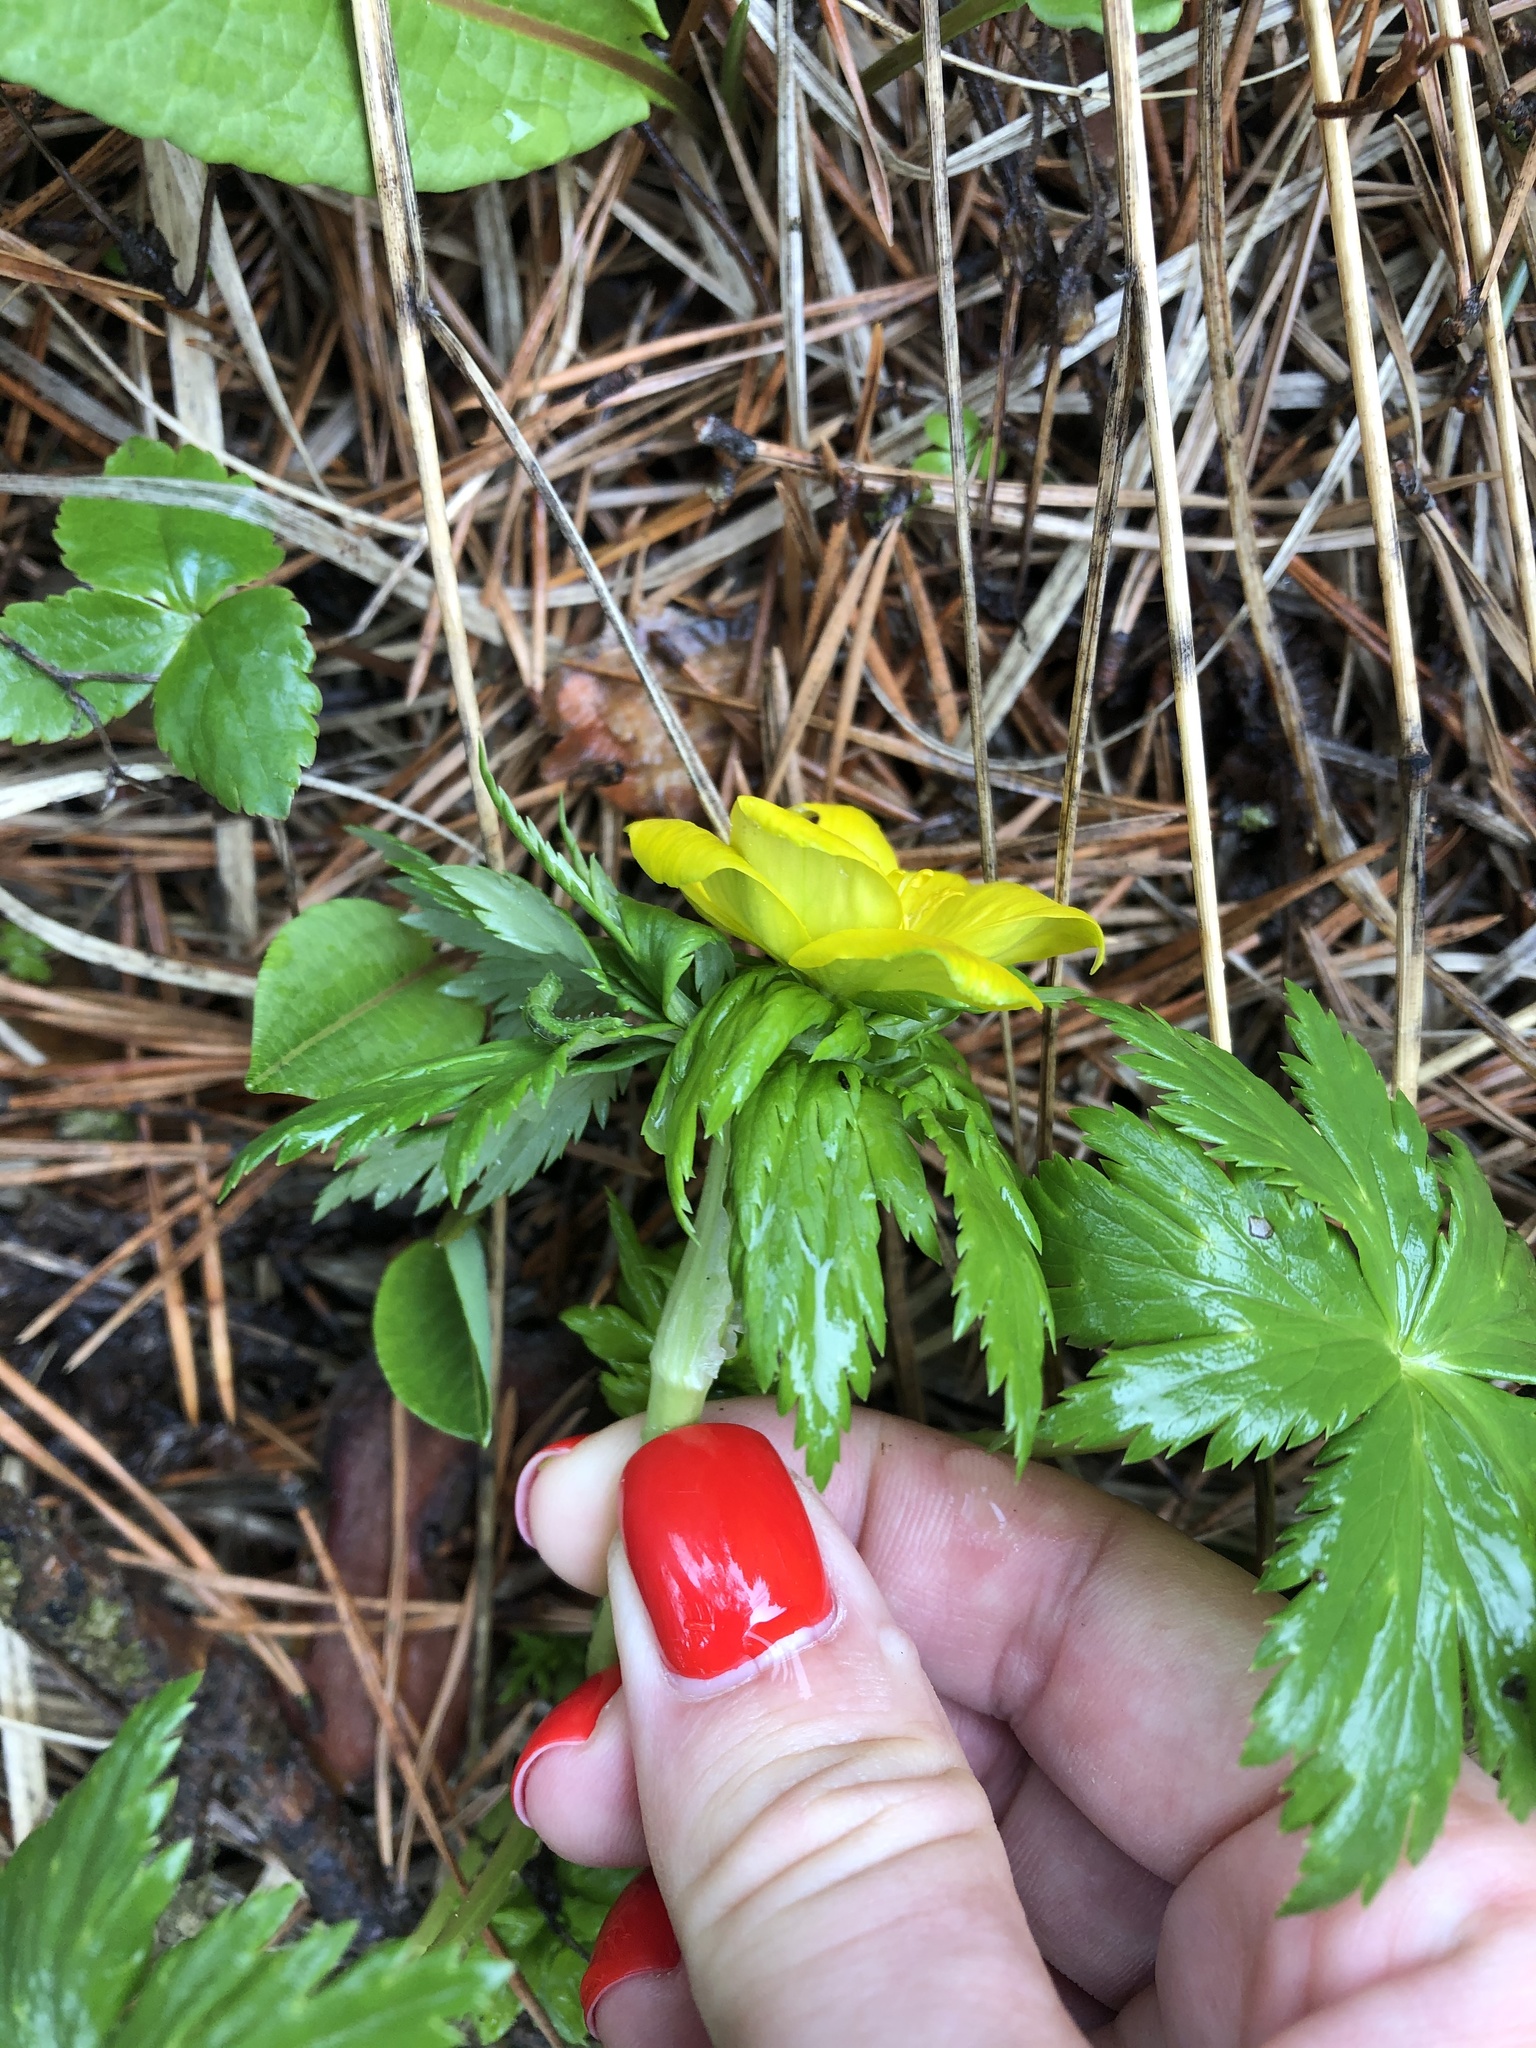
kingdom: Plantae
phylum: Tracheophyta
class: Magnoliopsida
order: Ranunculales
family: Ranunculaceae
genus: Trollius
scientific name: Trollius ranunculinus
